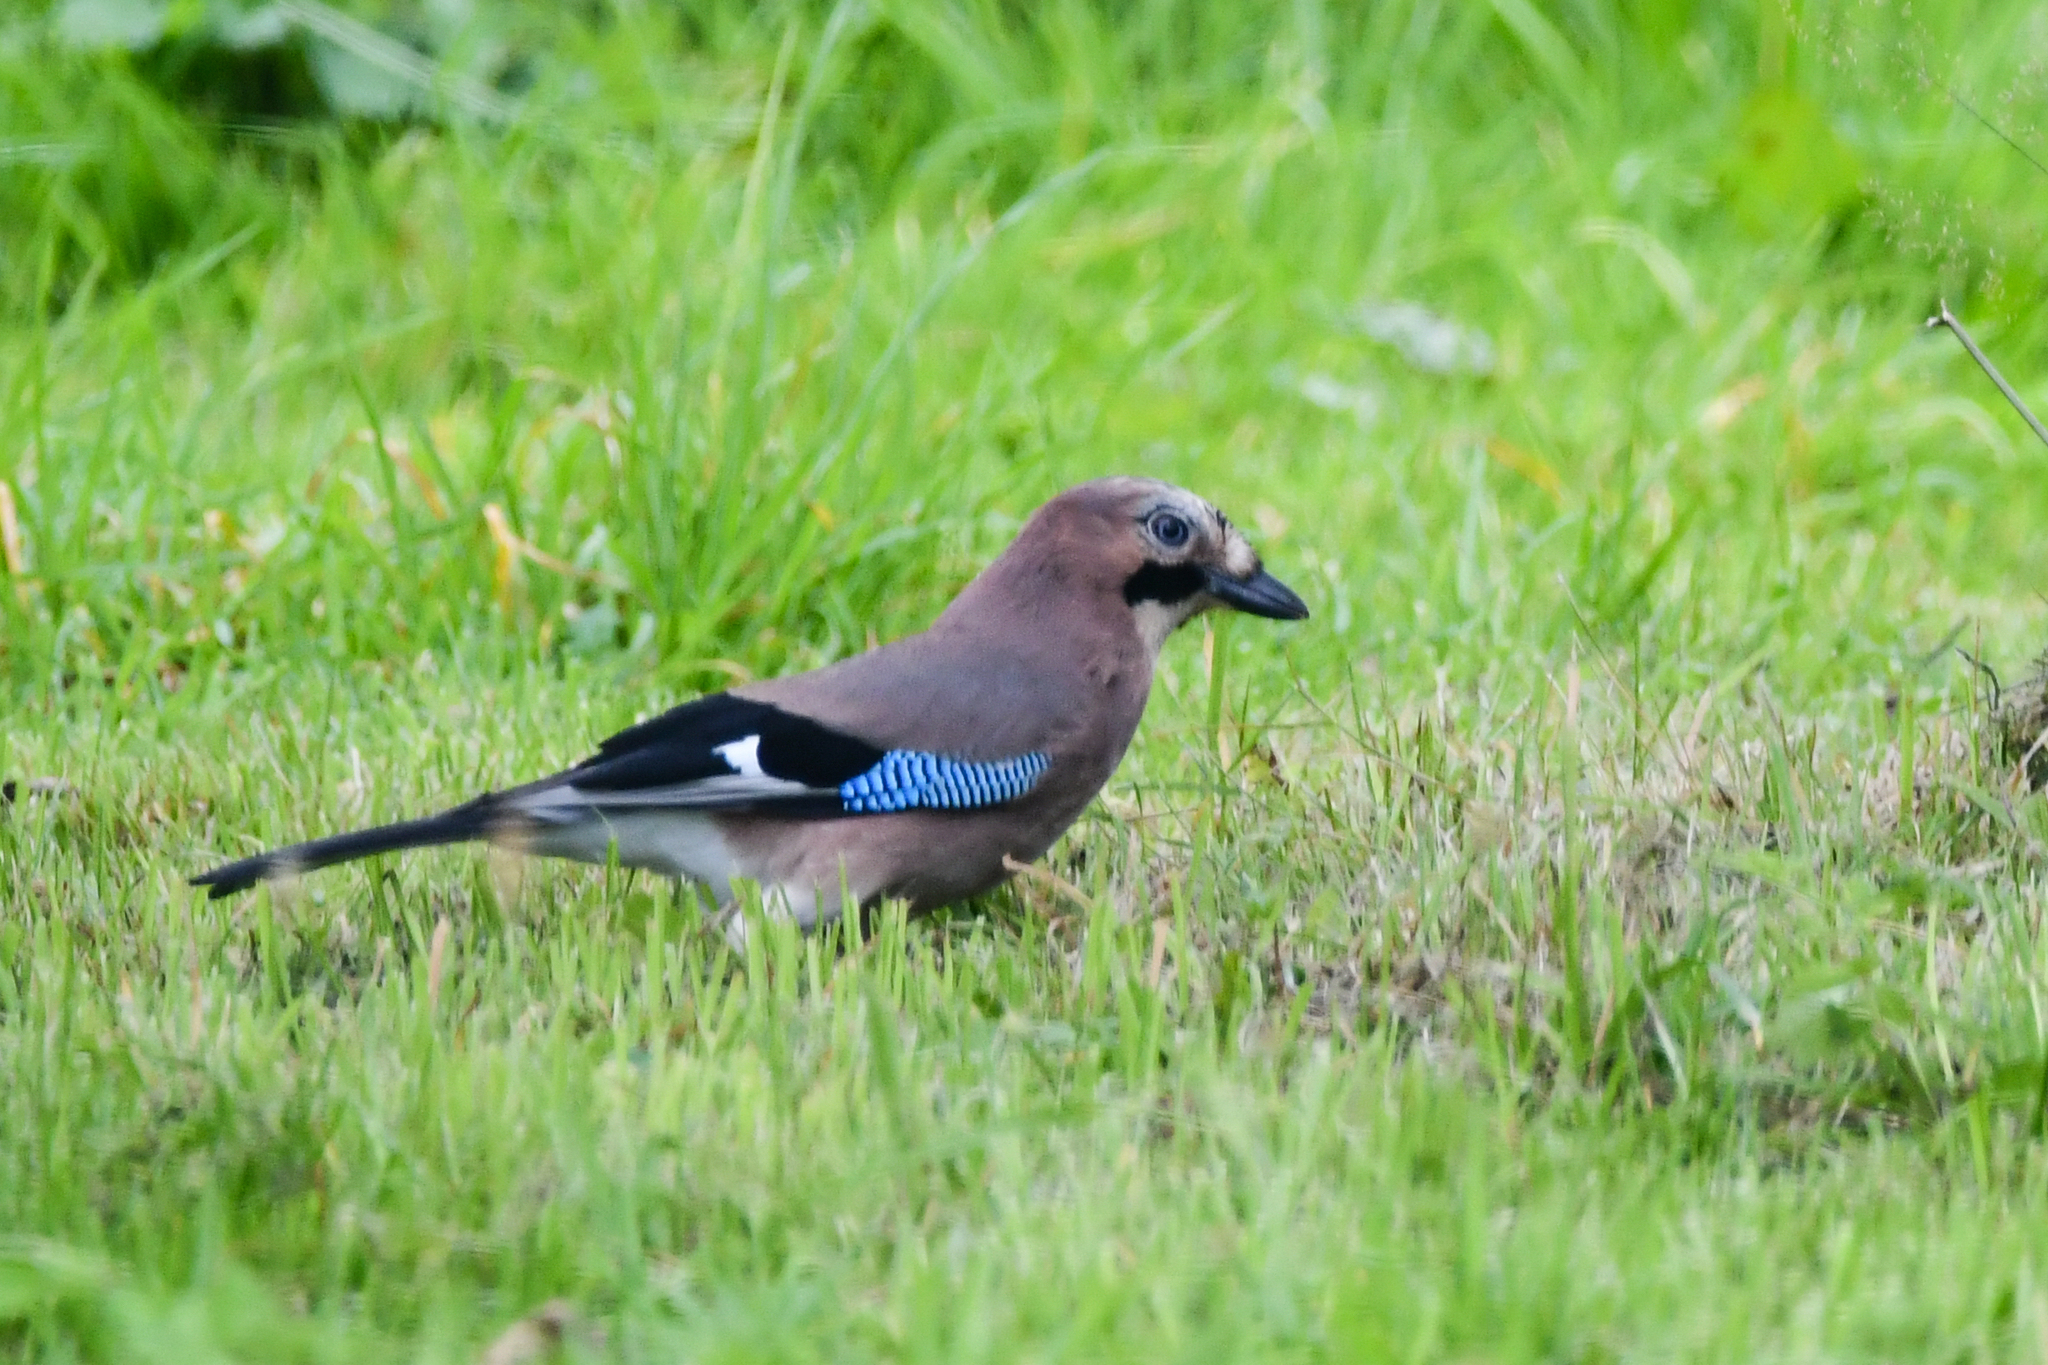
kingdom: Animalia
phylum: Chordata
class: Aves
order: Passeriformes
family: Corvidae
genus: Garrulus
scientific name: Garrulus glandarius
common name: Eurasian jay
